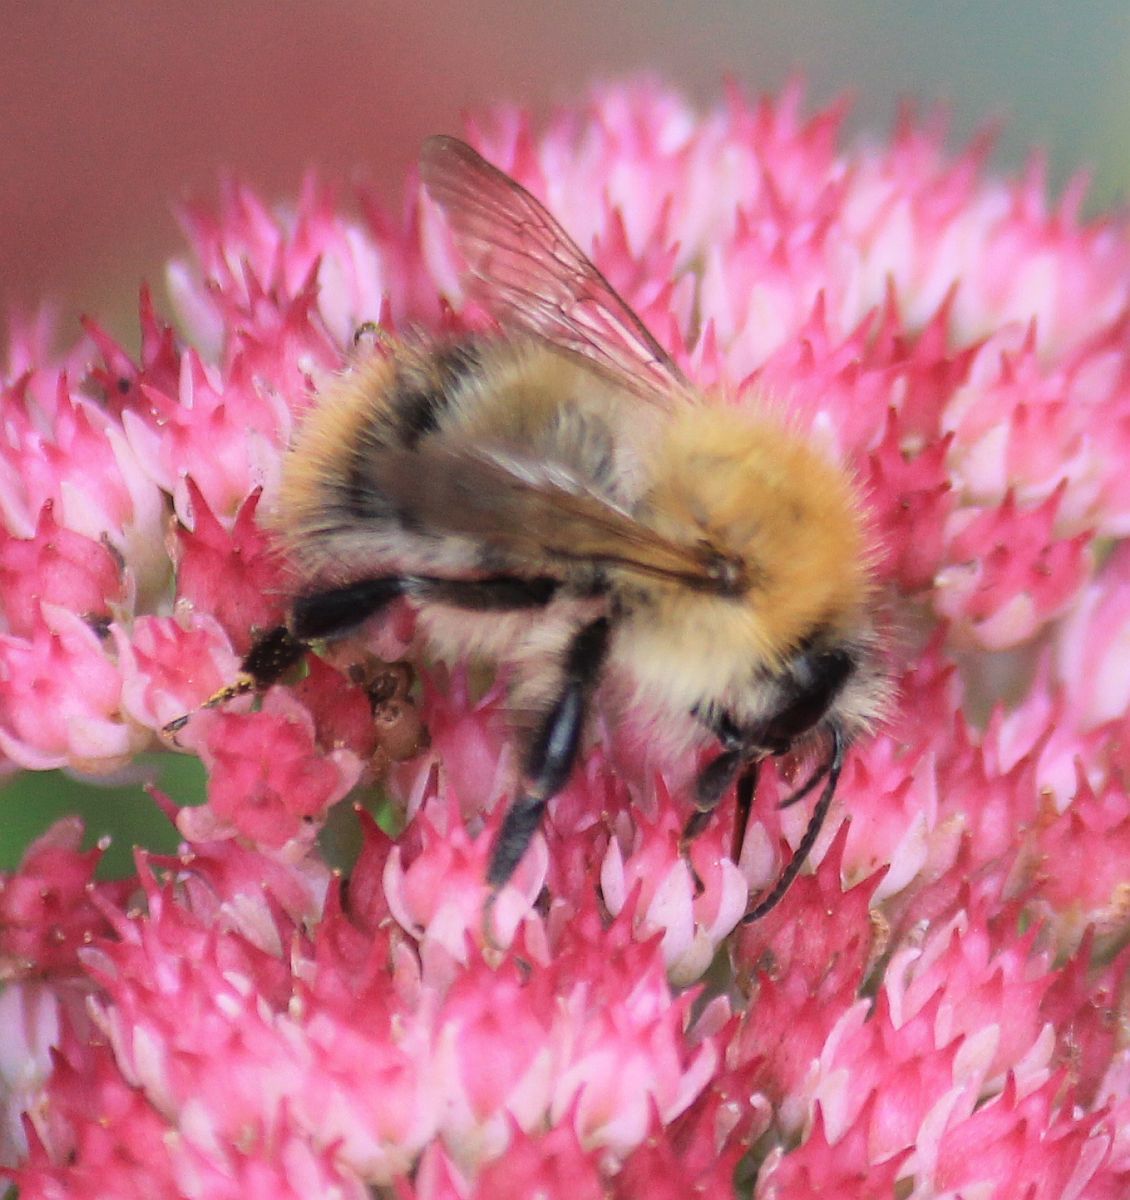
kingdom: Animalia
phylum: Arthropoda
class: Insecta
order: Hymenoptera
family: Apidae
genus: Bombus
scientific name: Bombus pascuorum
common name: Common carder bee
